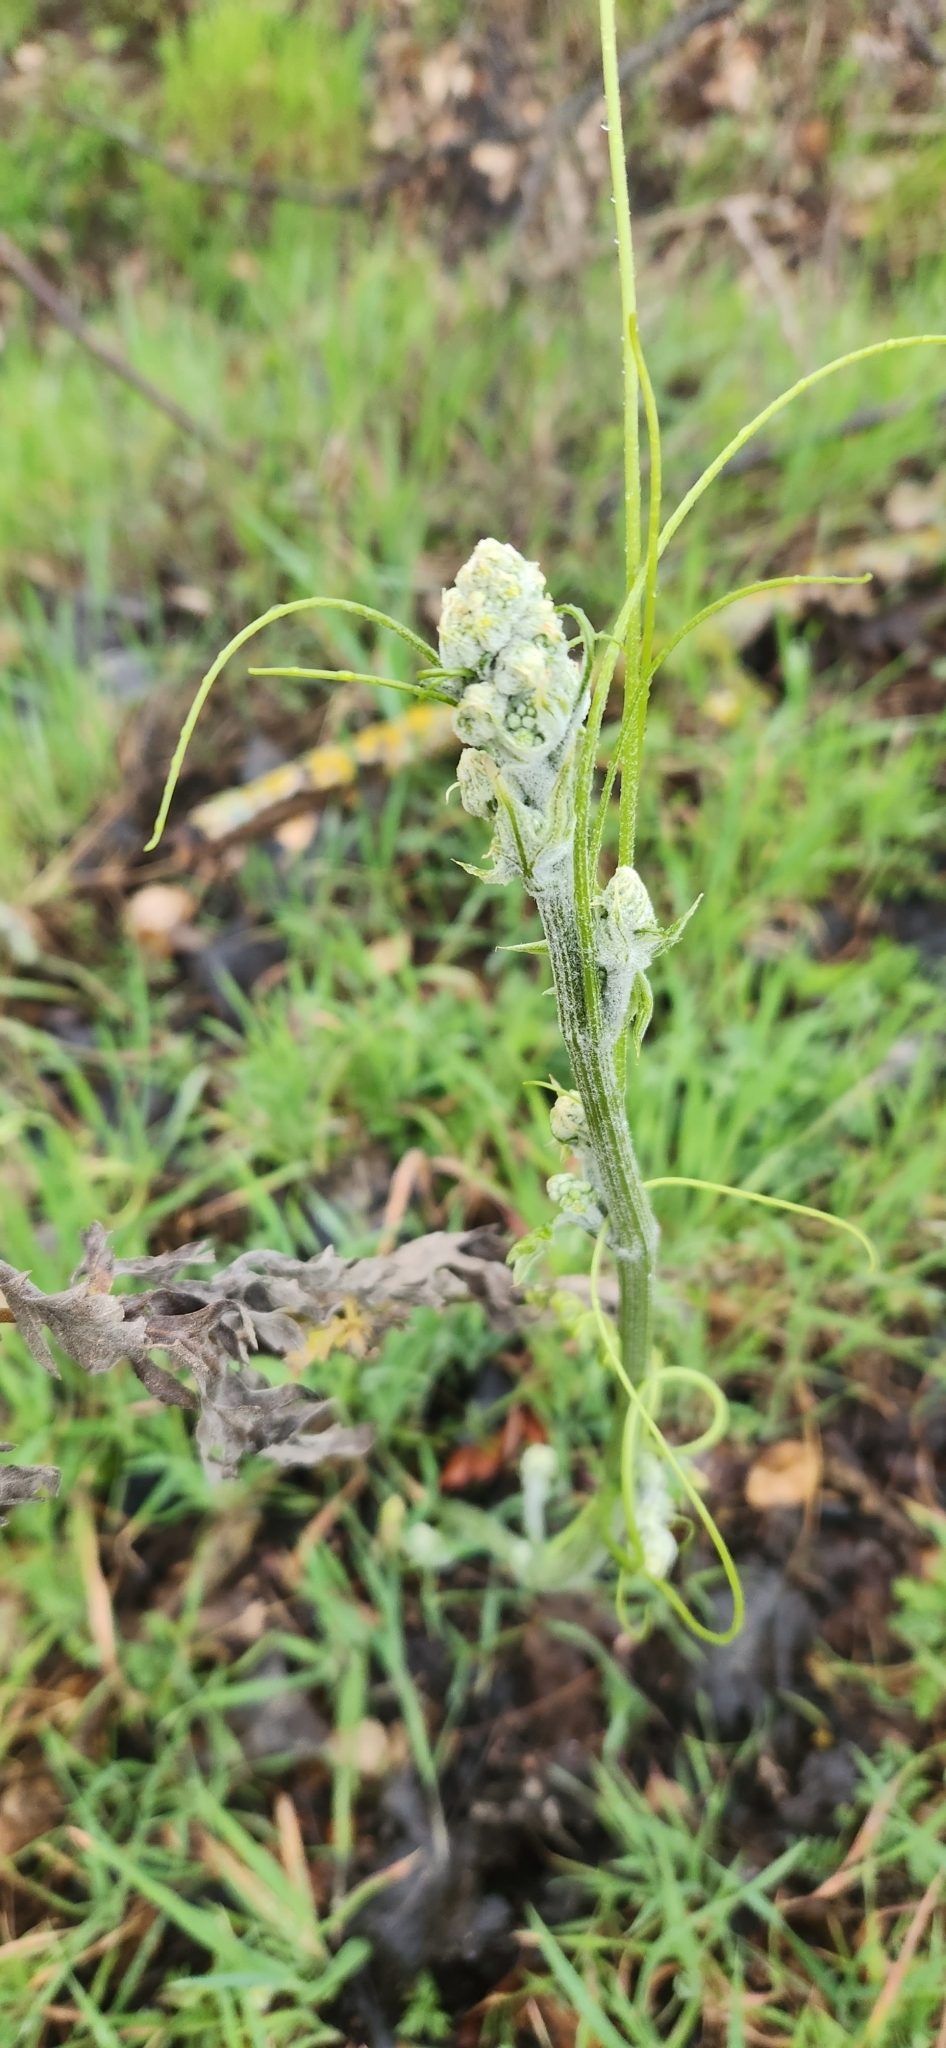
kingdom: Plantae
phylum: Tracheophyta
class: Magnoliopsida
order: Cucurbitales
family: Cucurbitaceae
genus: Marah
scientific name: Marah fabacea
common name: California manroot
